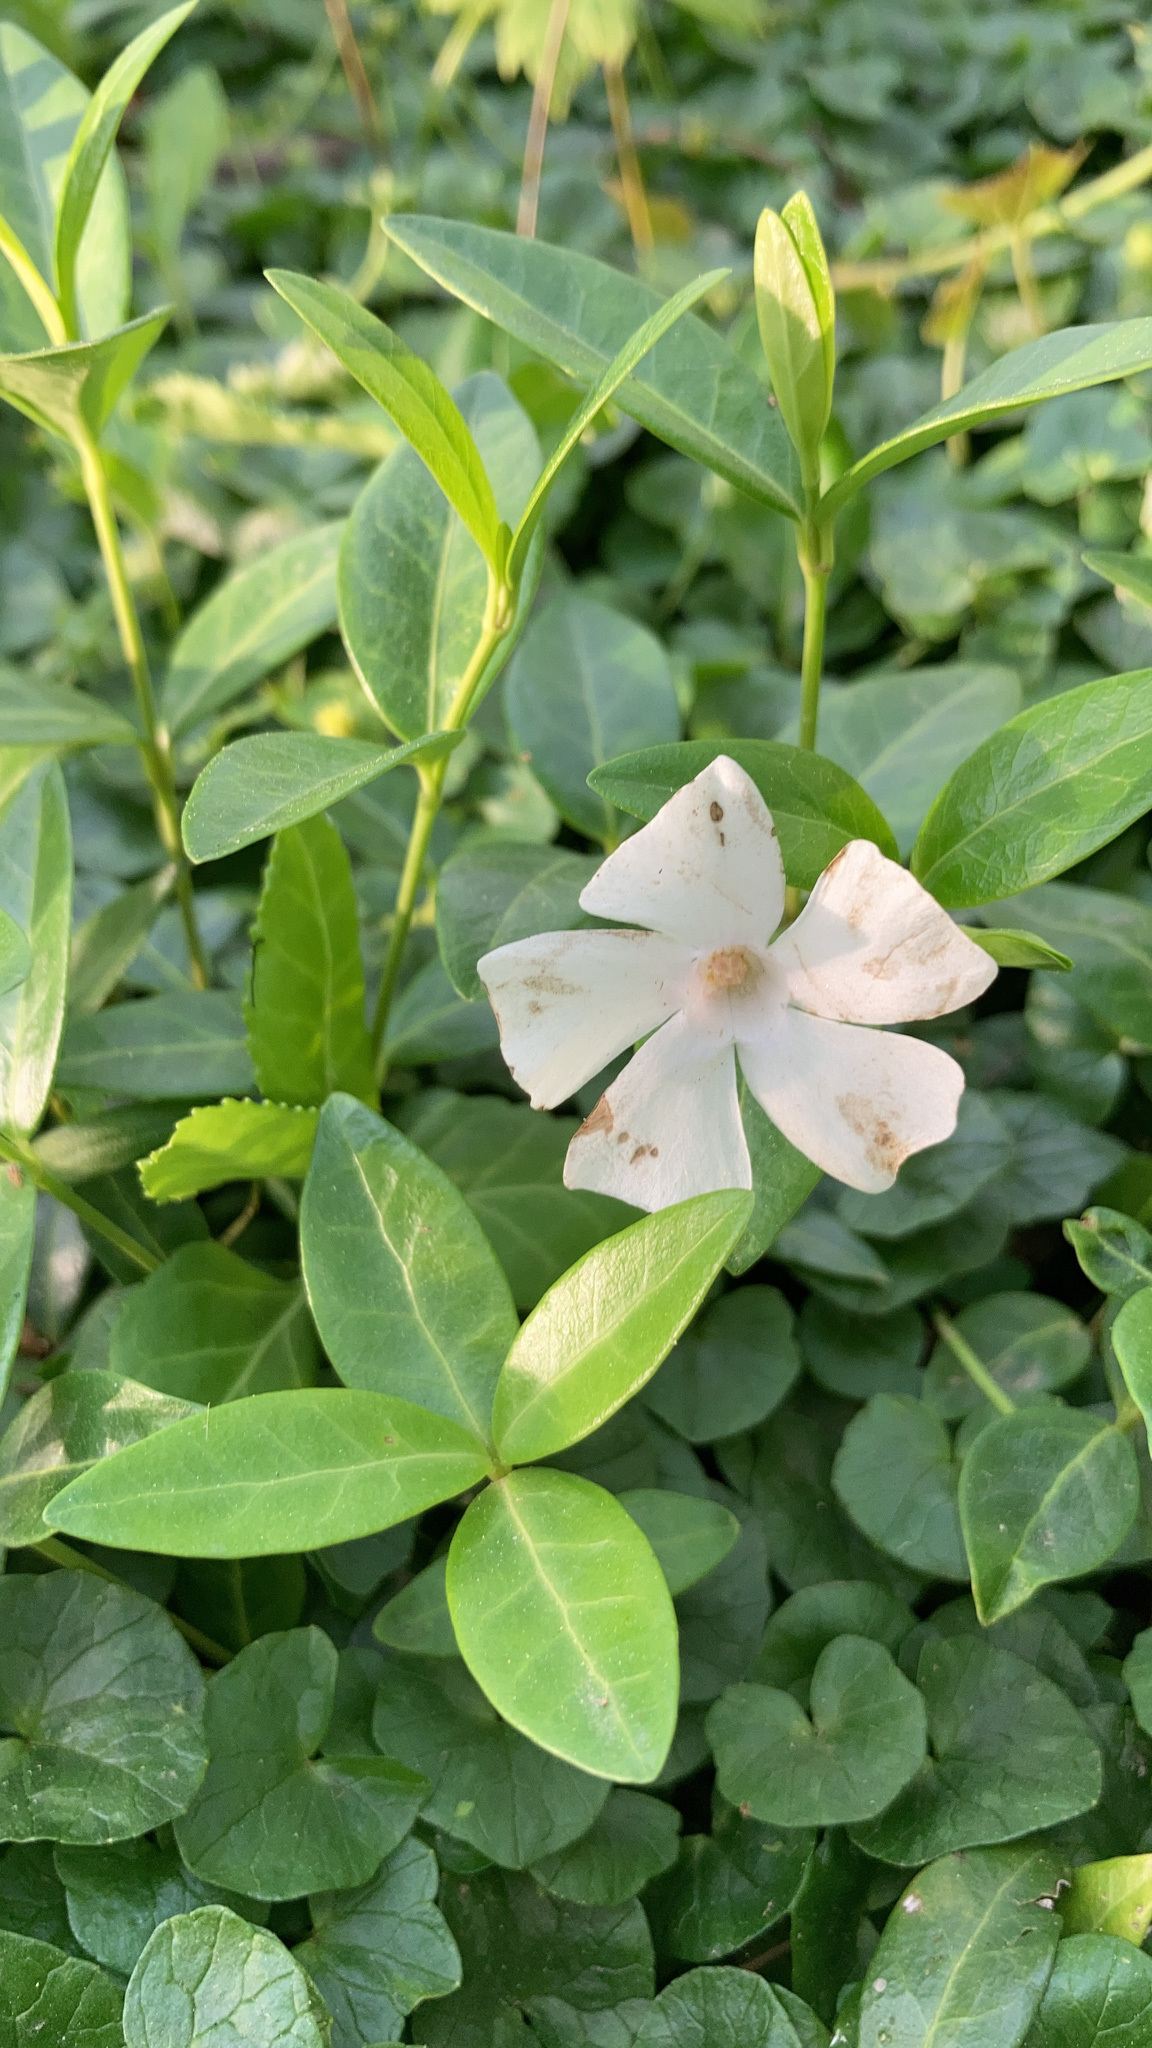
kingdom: Plantae
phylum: Tracheophyta
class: Magnoliopsida
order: Gentianales
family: Apocynaceae
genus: Vinca
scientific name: Vinca minor
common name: Lesser periwinkle
